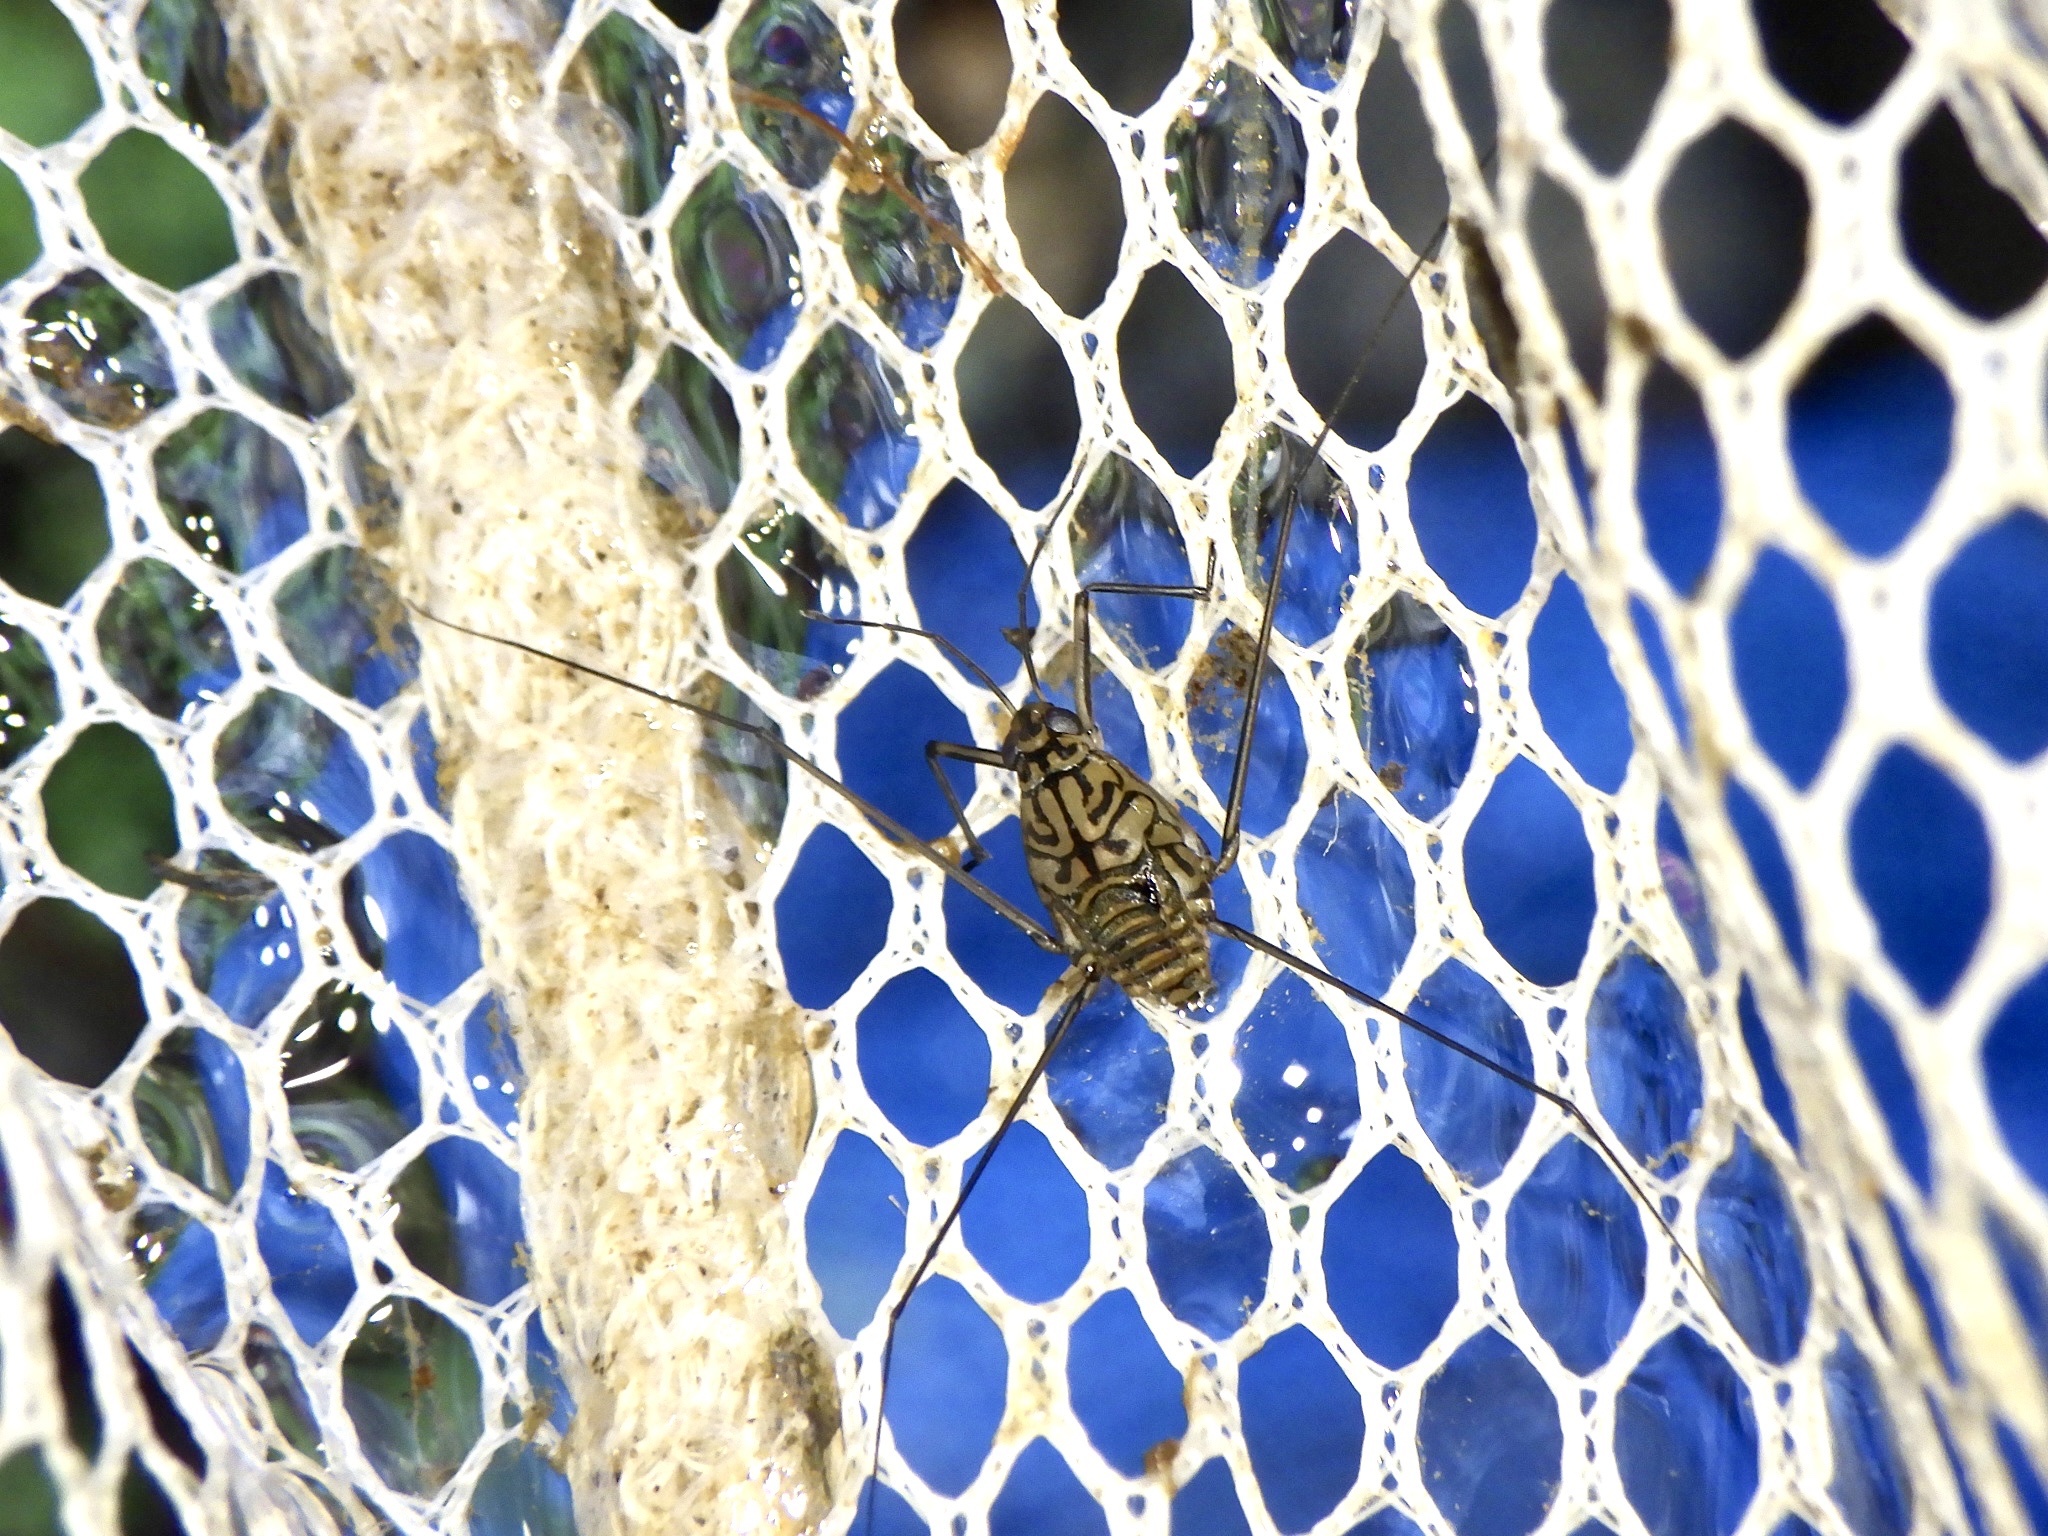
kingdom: Animalia
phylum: Arthropoda
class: Insecta
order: Hemiptera
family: Gerridae
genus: Metrocoris
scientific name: Metrocoris histrio
